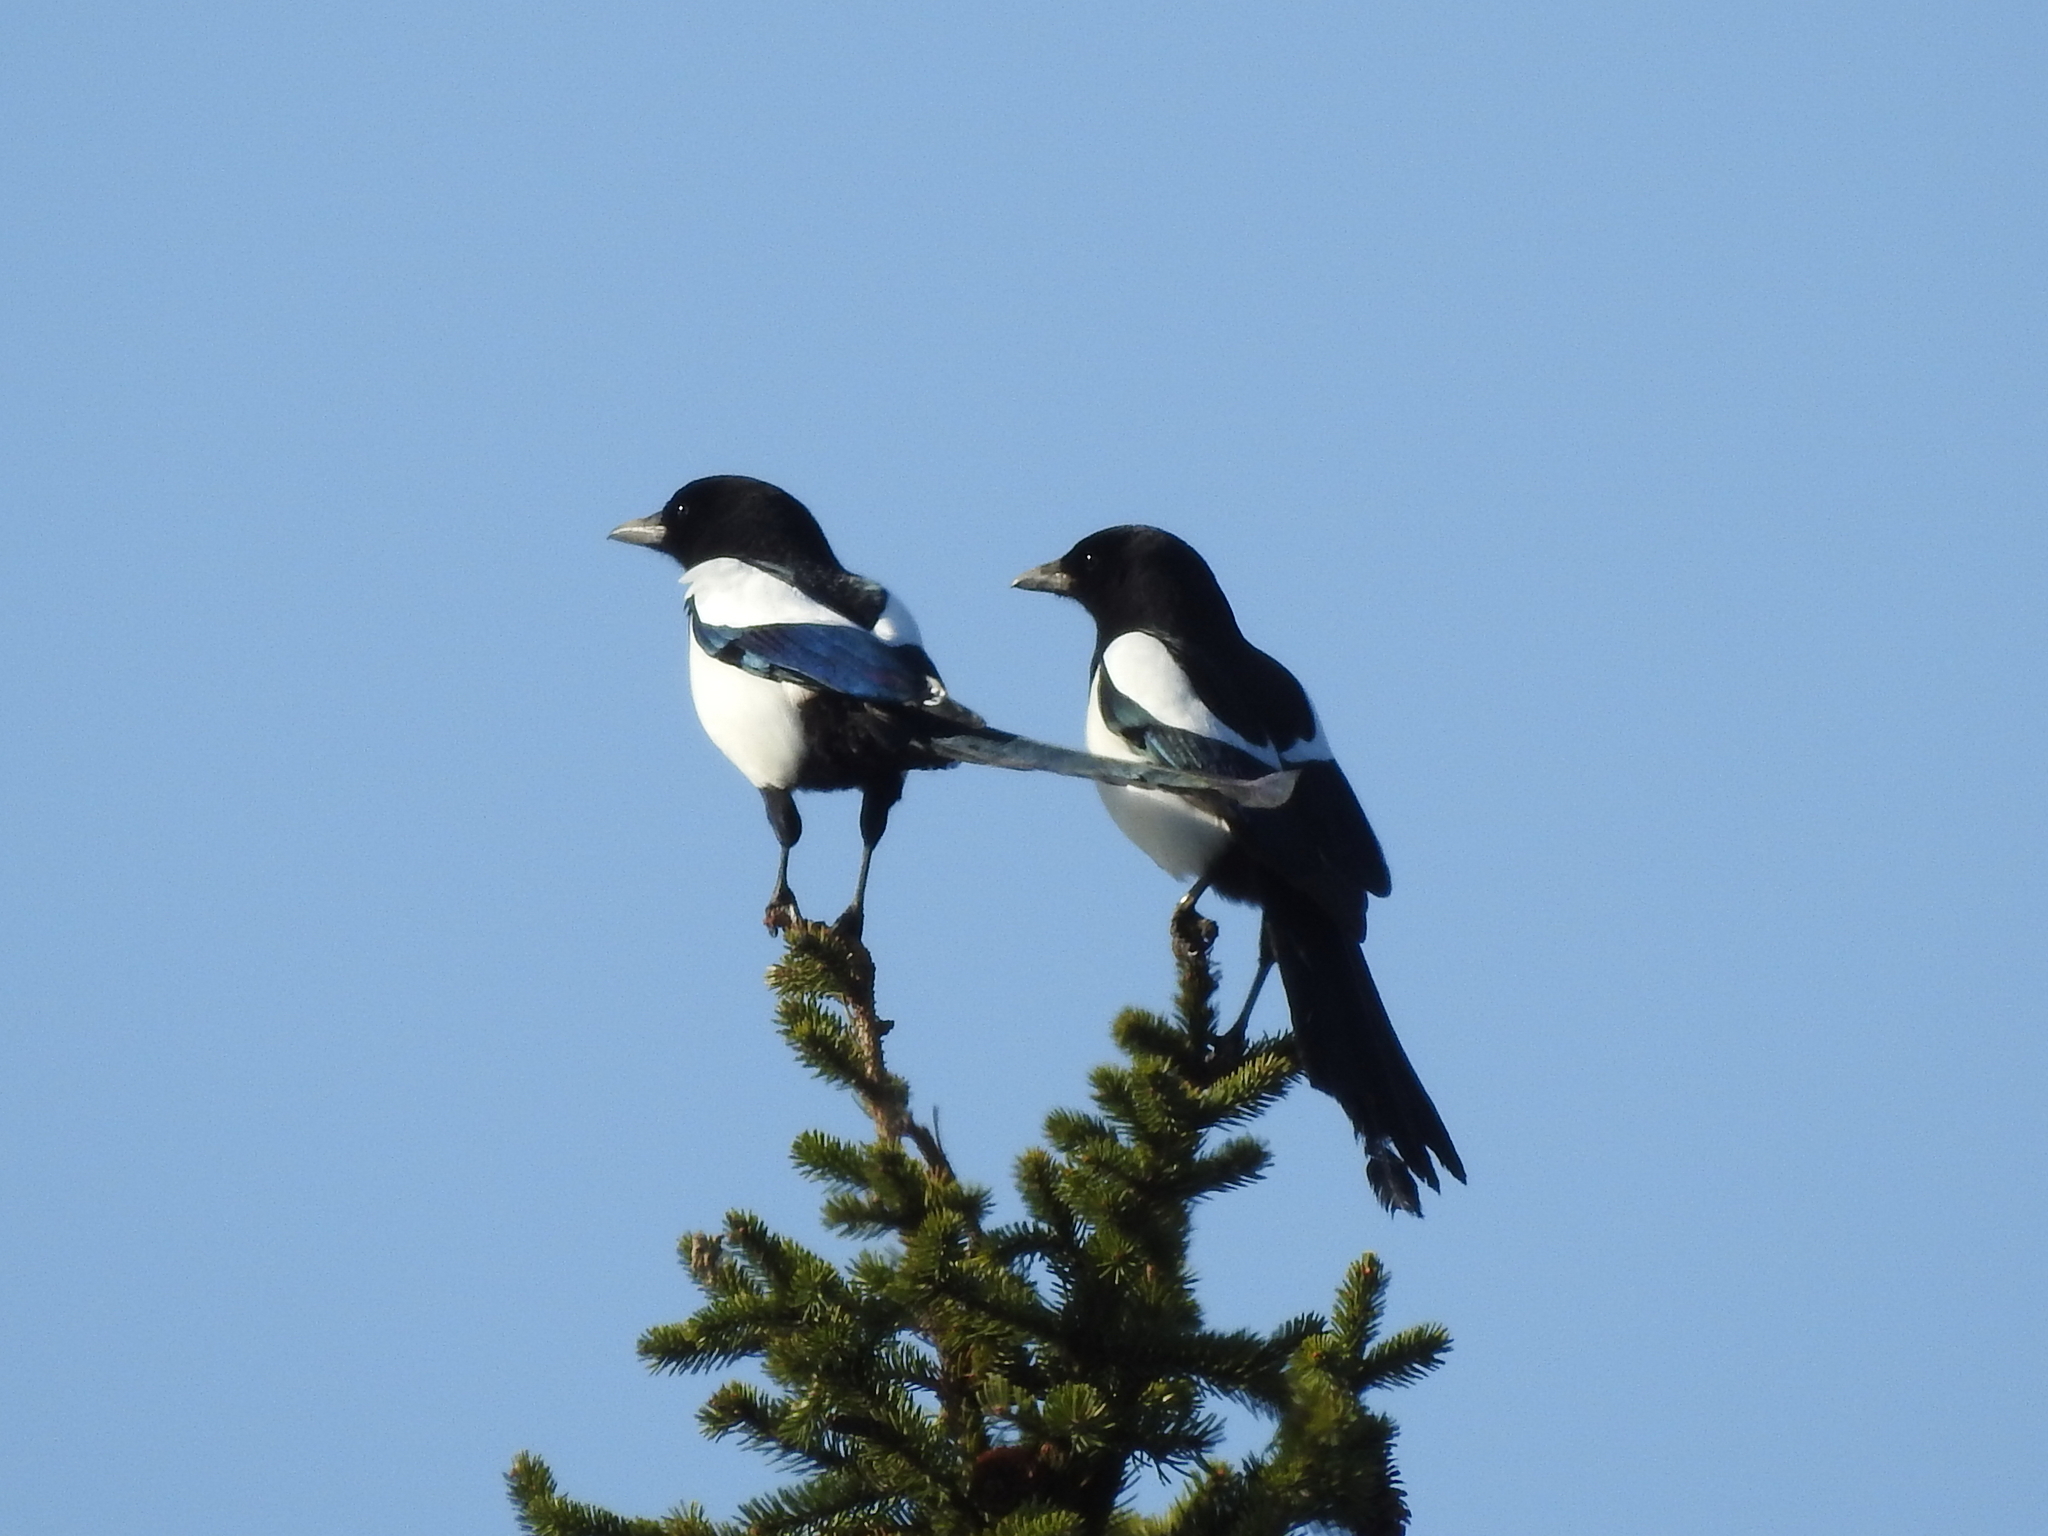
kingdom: Animalia
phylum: Chordata
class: Aves
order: Passeriformes
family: Corvidae
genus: Pica
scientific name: Pica pica
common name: Eurasian magpie
